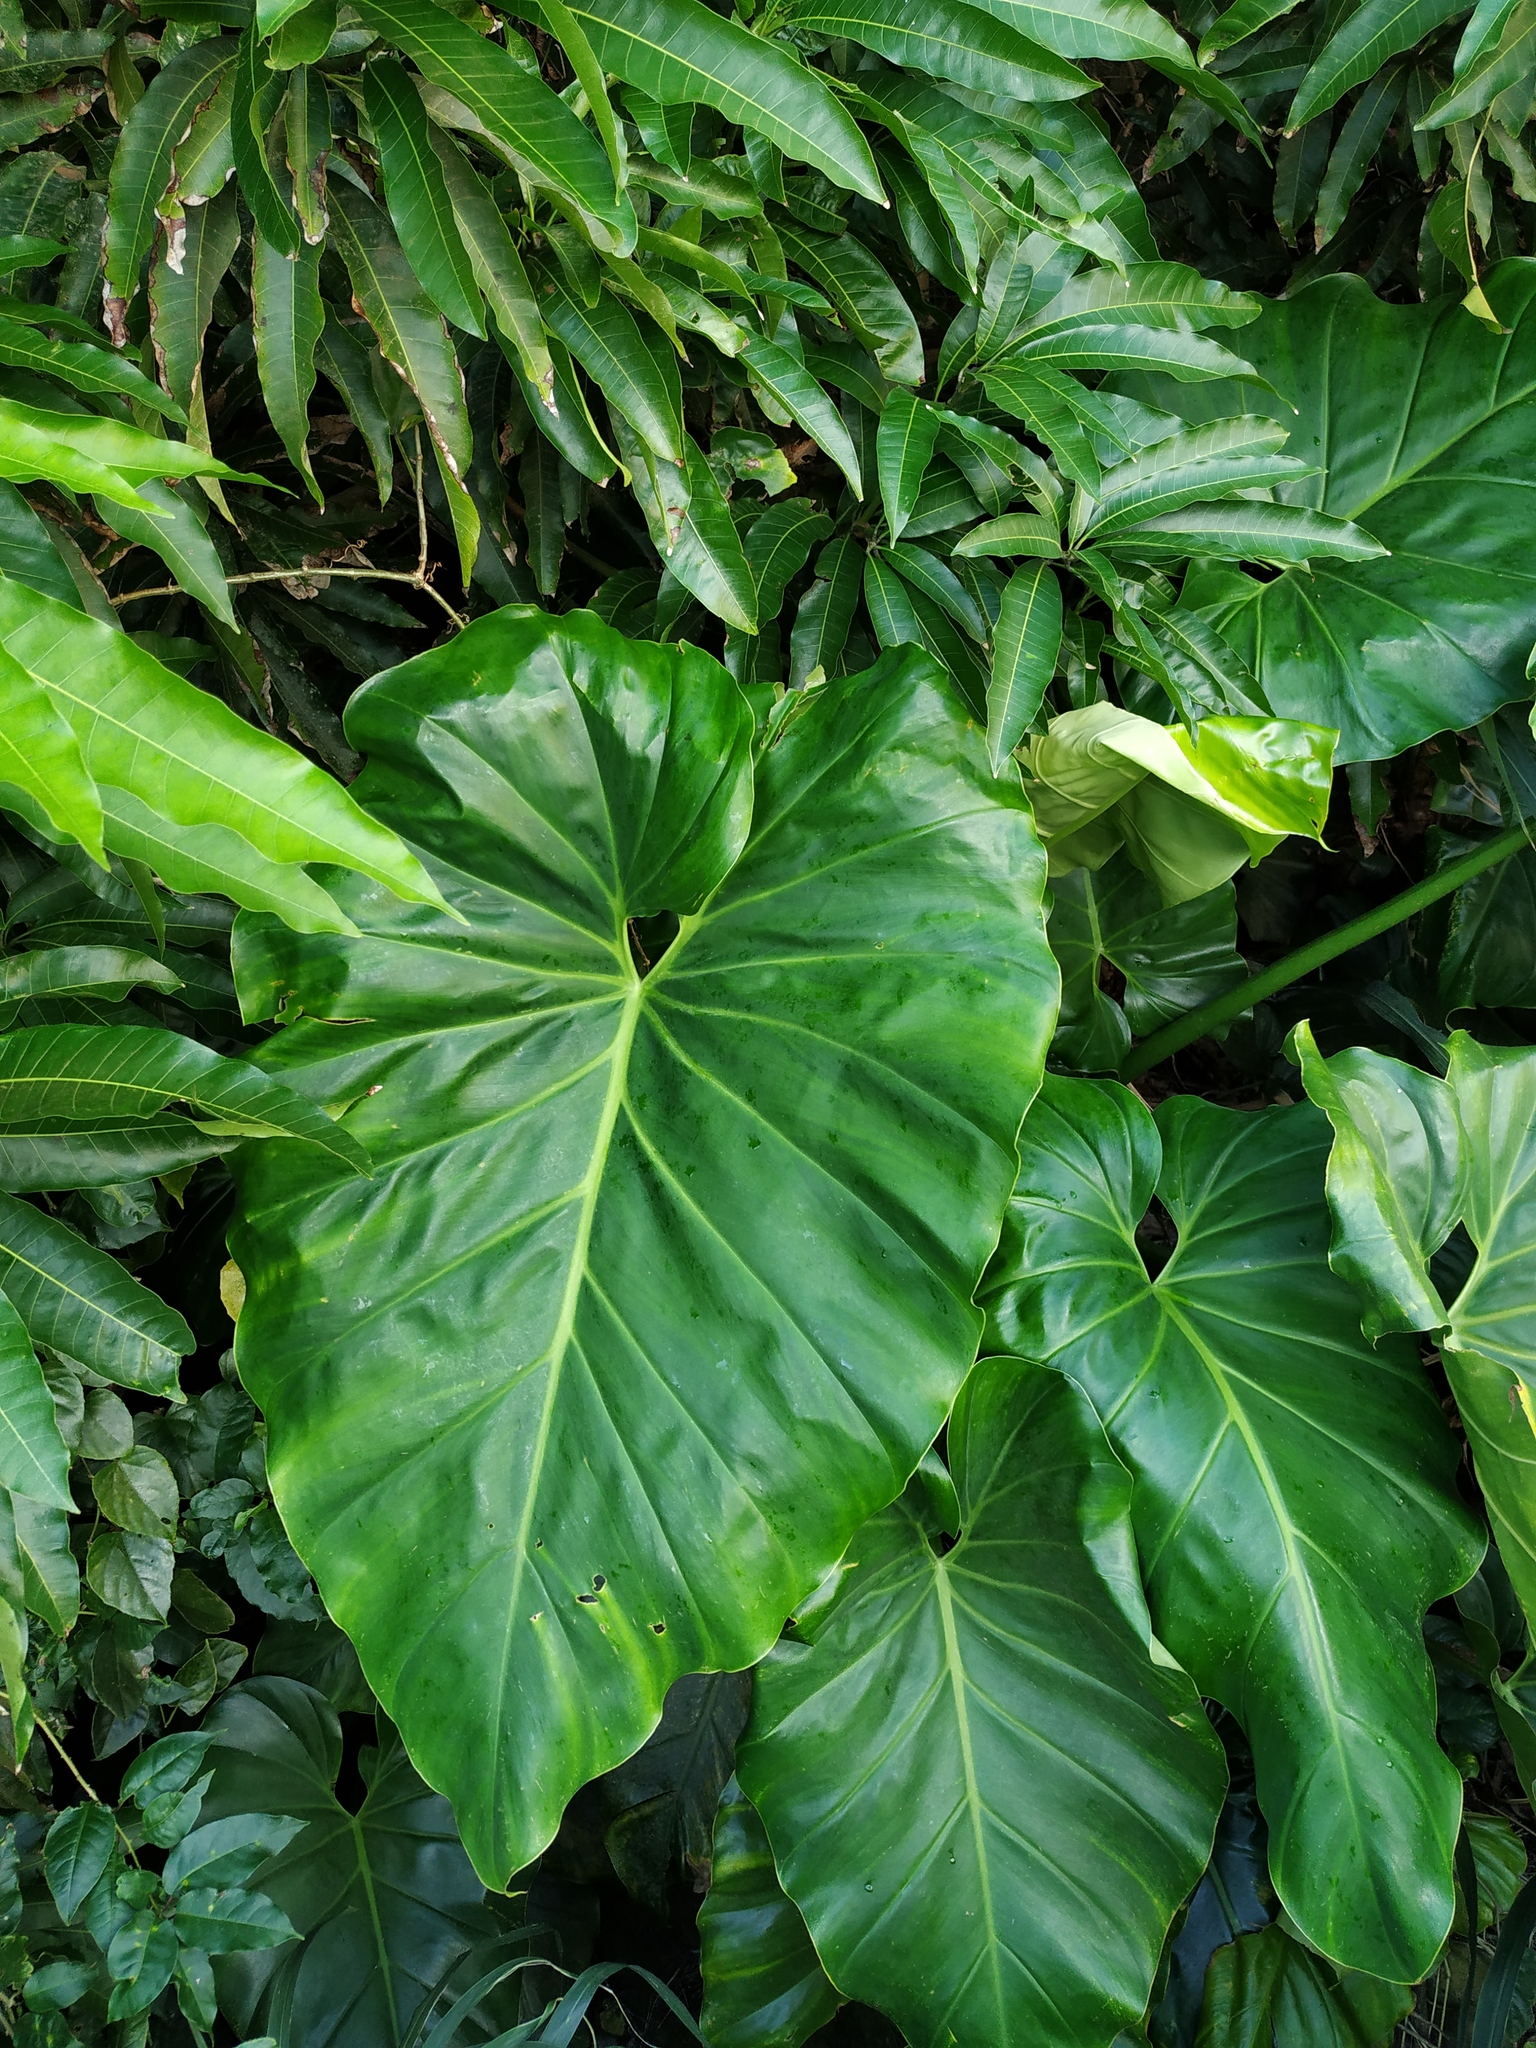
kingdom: Plantae
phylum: Tracheophyta
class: Liliopsida
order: Alismatales
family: Araceae
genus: Philodendron
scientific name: Philodendron giganteum
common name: Giant philodendron
